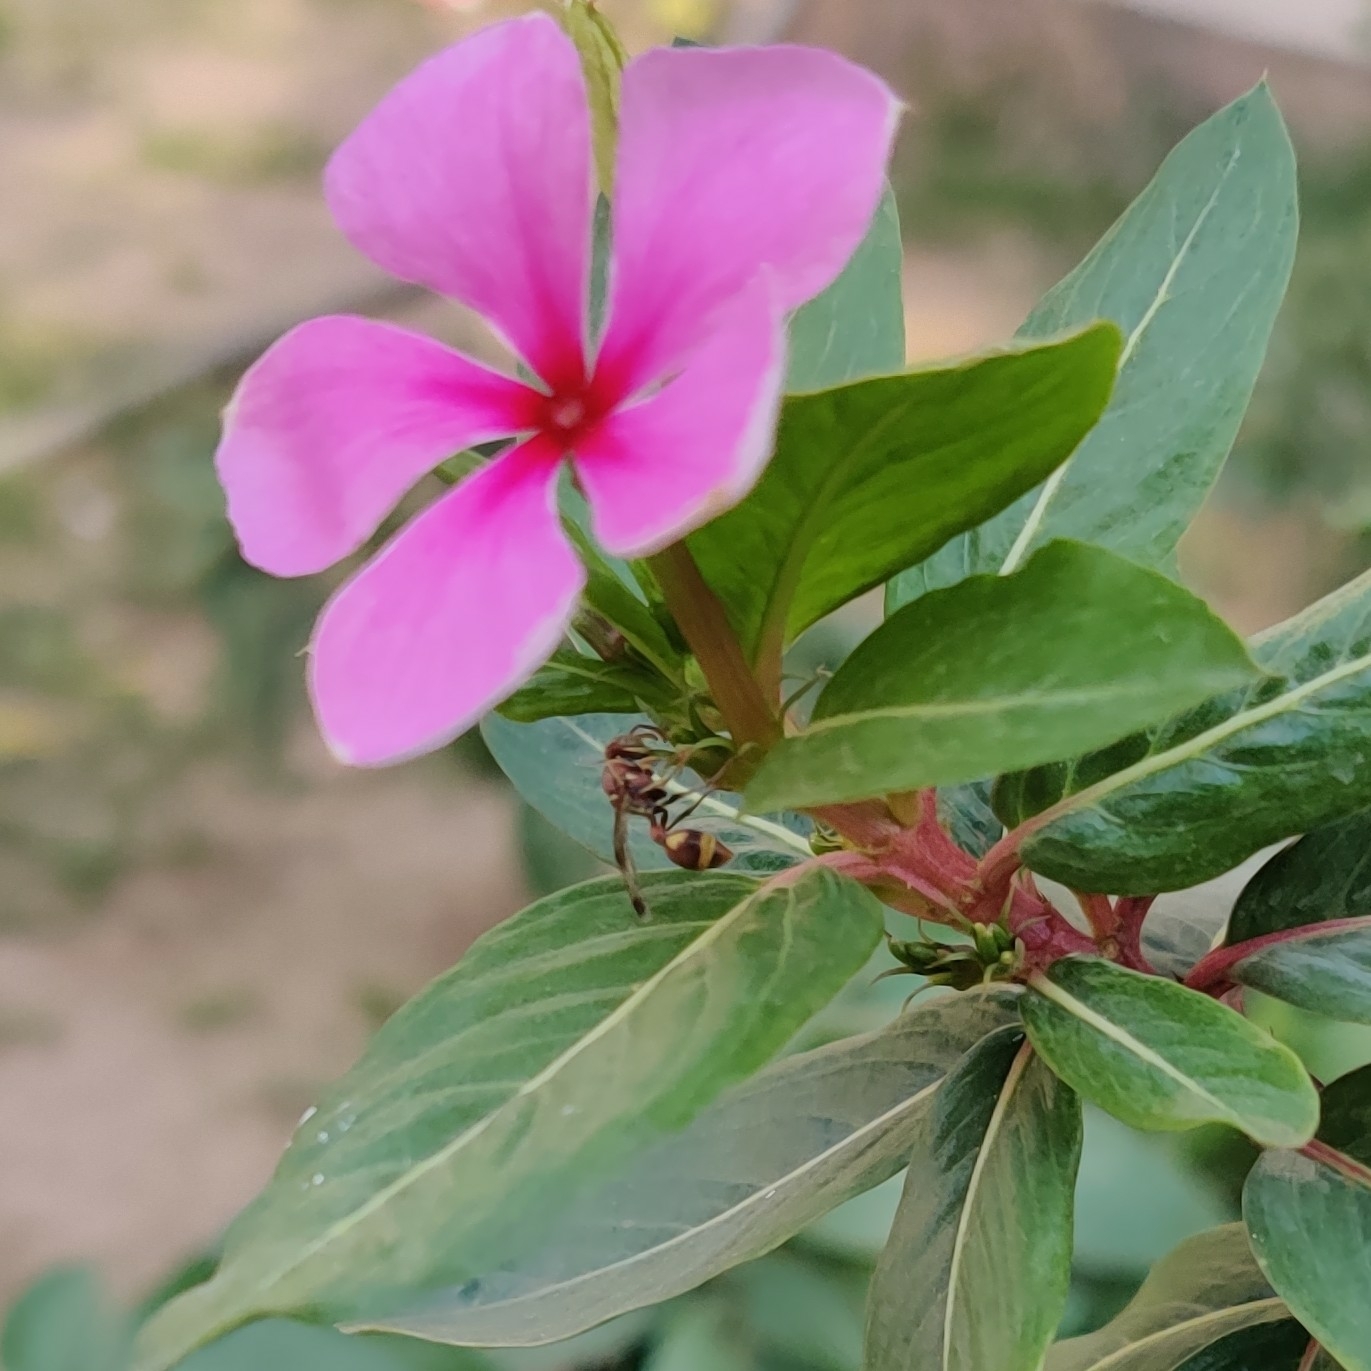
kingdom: Animalia
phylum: Arthropoda
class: Insecta
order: Hymenoptera
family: Vespidae
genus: Ropalidia
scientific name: Ropalidia variegata
